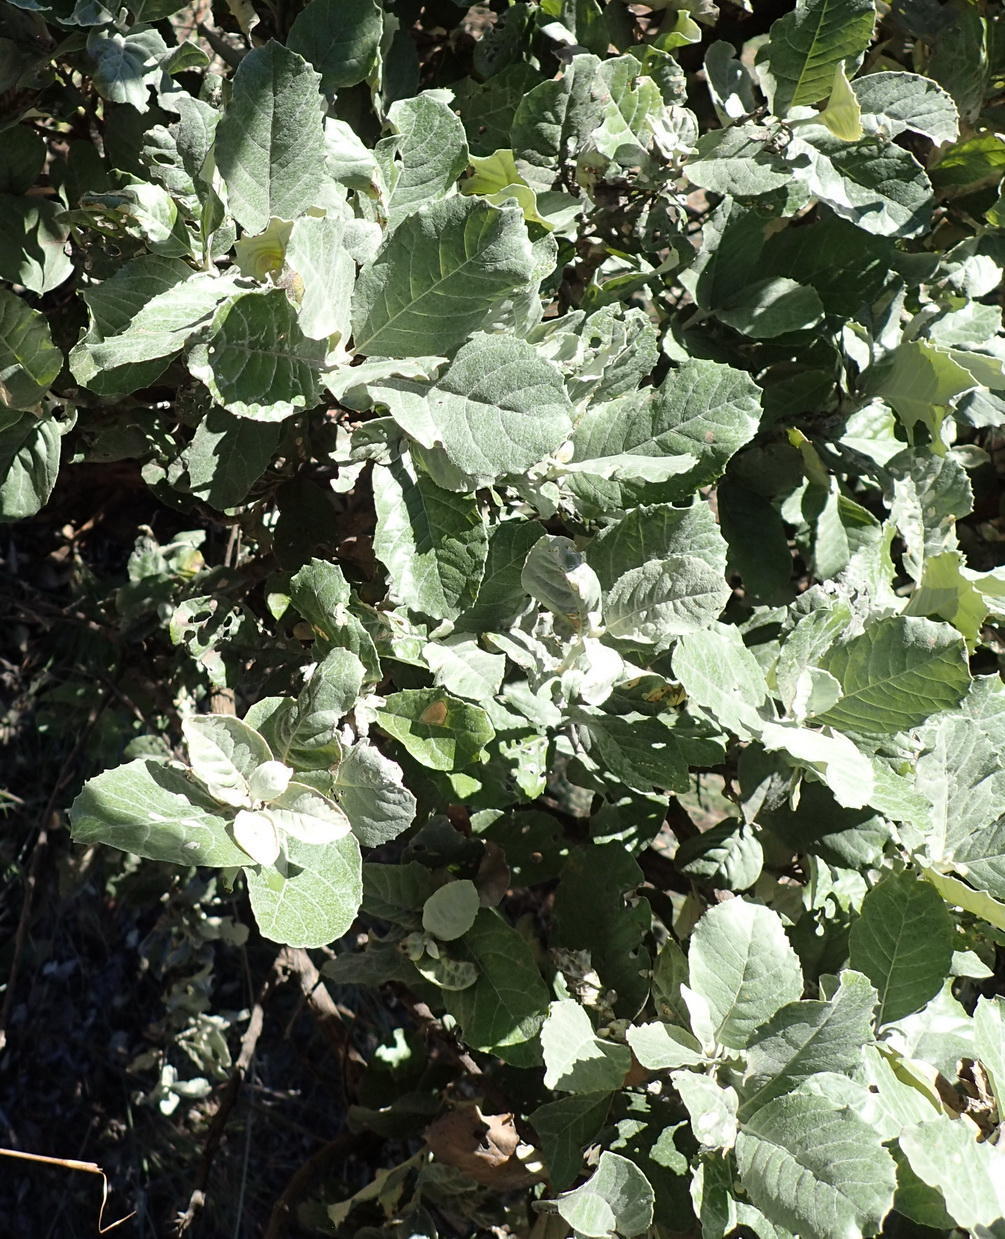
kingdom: Plantae
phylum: Tracheophyta
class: Magnoliopsida
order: Asterales
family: Asteraceae
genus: Brachylaena
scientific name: Brachylaena discolor
